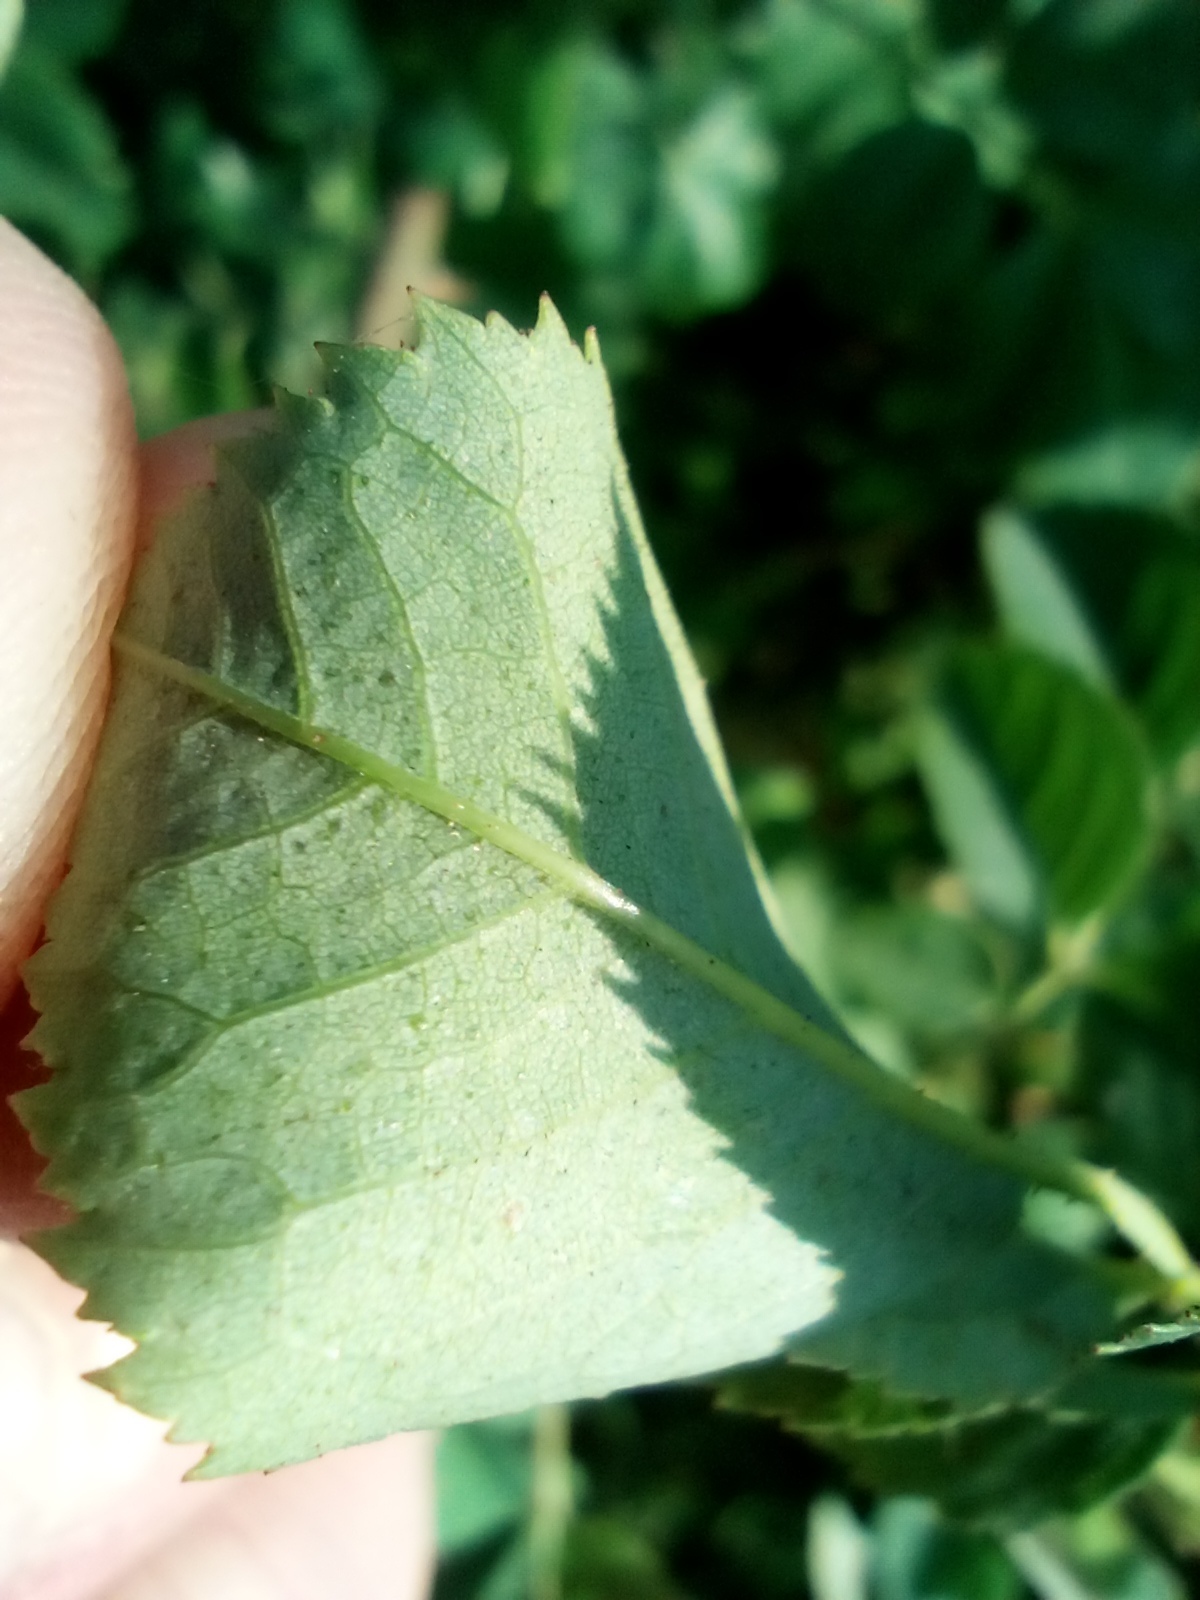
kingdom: Plantae
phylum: Tracheophyta
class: Magnoliopsida
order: Rosales
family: Rosaceae
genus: Rosa
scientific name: Rosa dumalis
